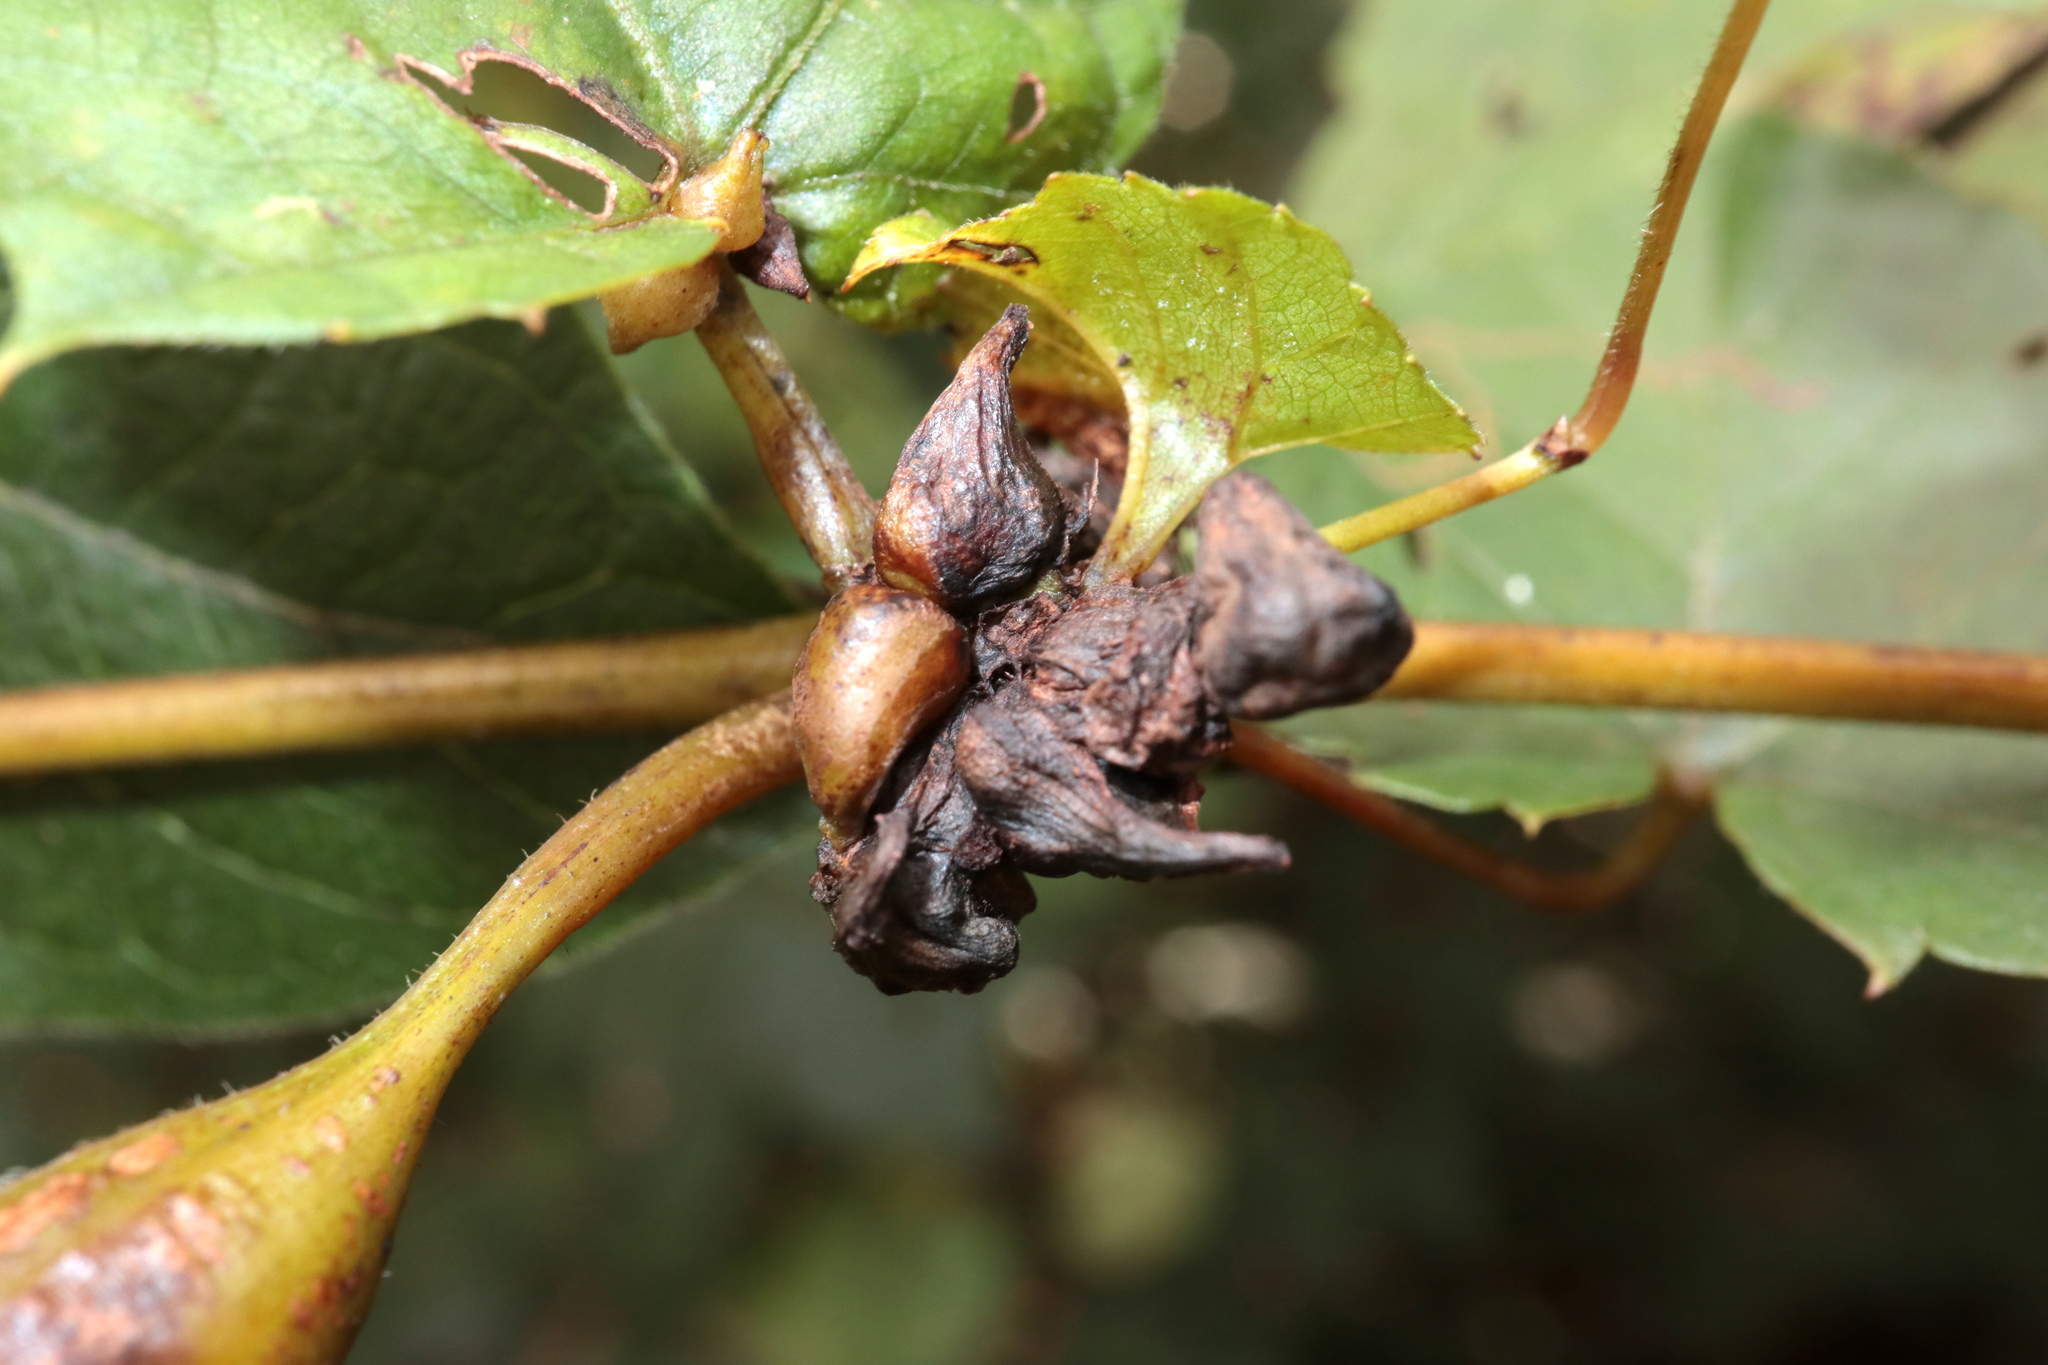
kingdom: Animalia
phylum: Arthropoda
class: Insecta
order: Diptera
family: Cecidomyiidae
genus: Ampelomyia
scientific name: Ampelomyia vitiscoryloides
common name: Grape filbert gall
